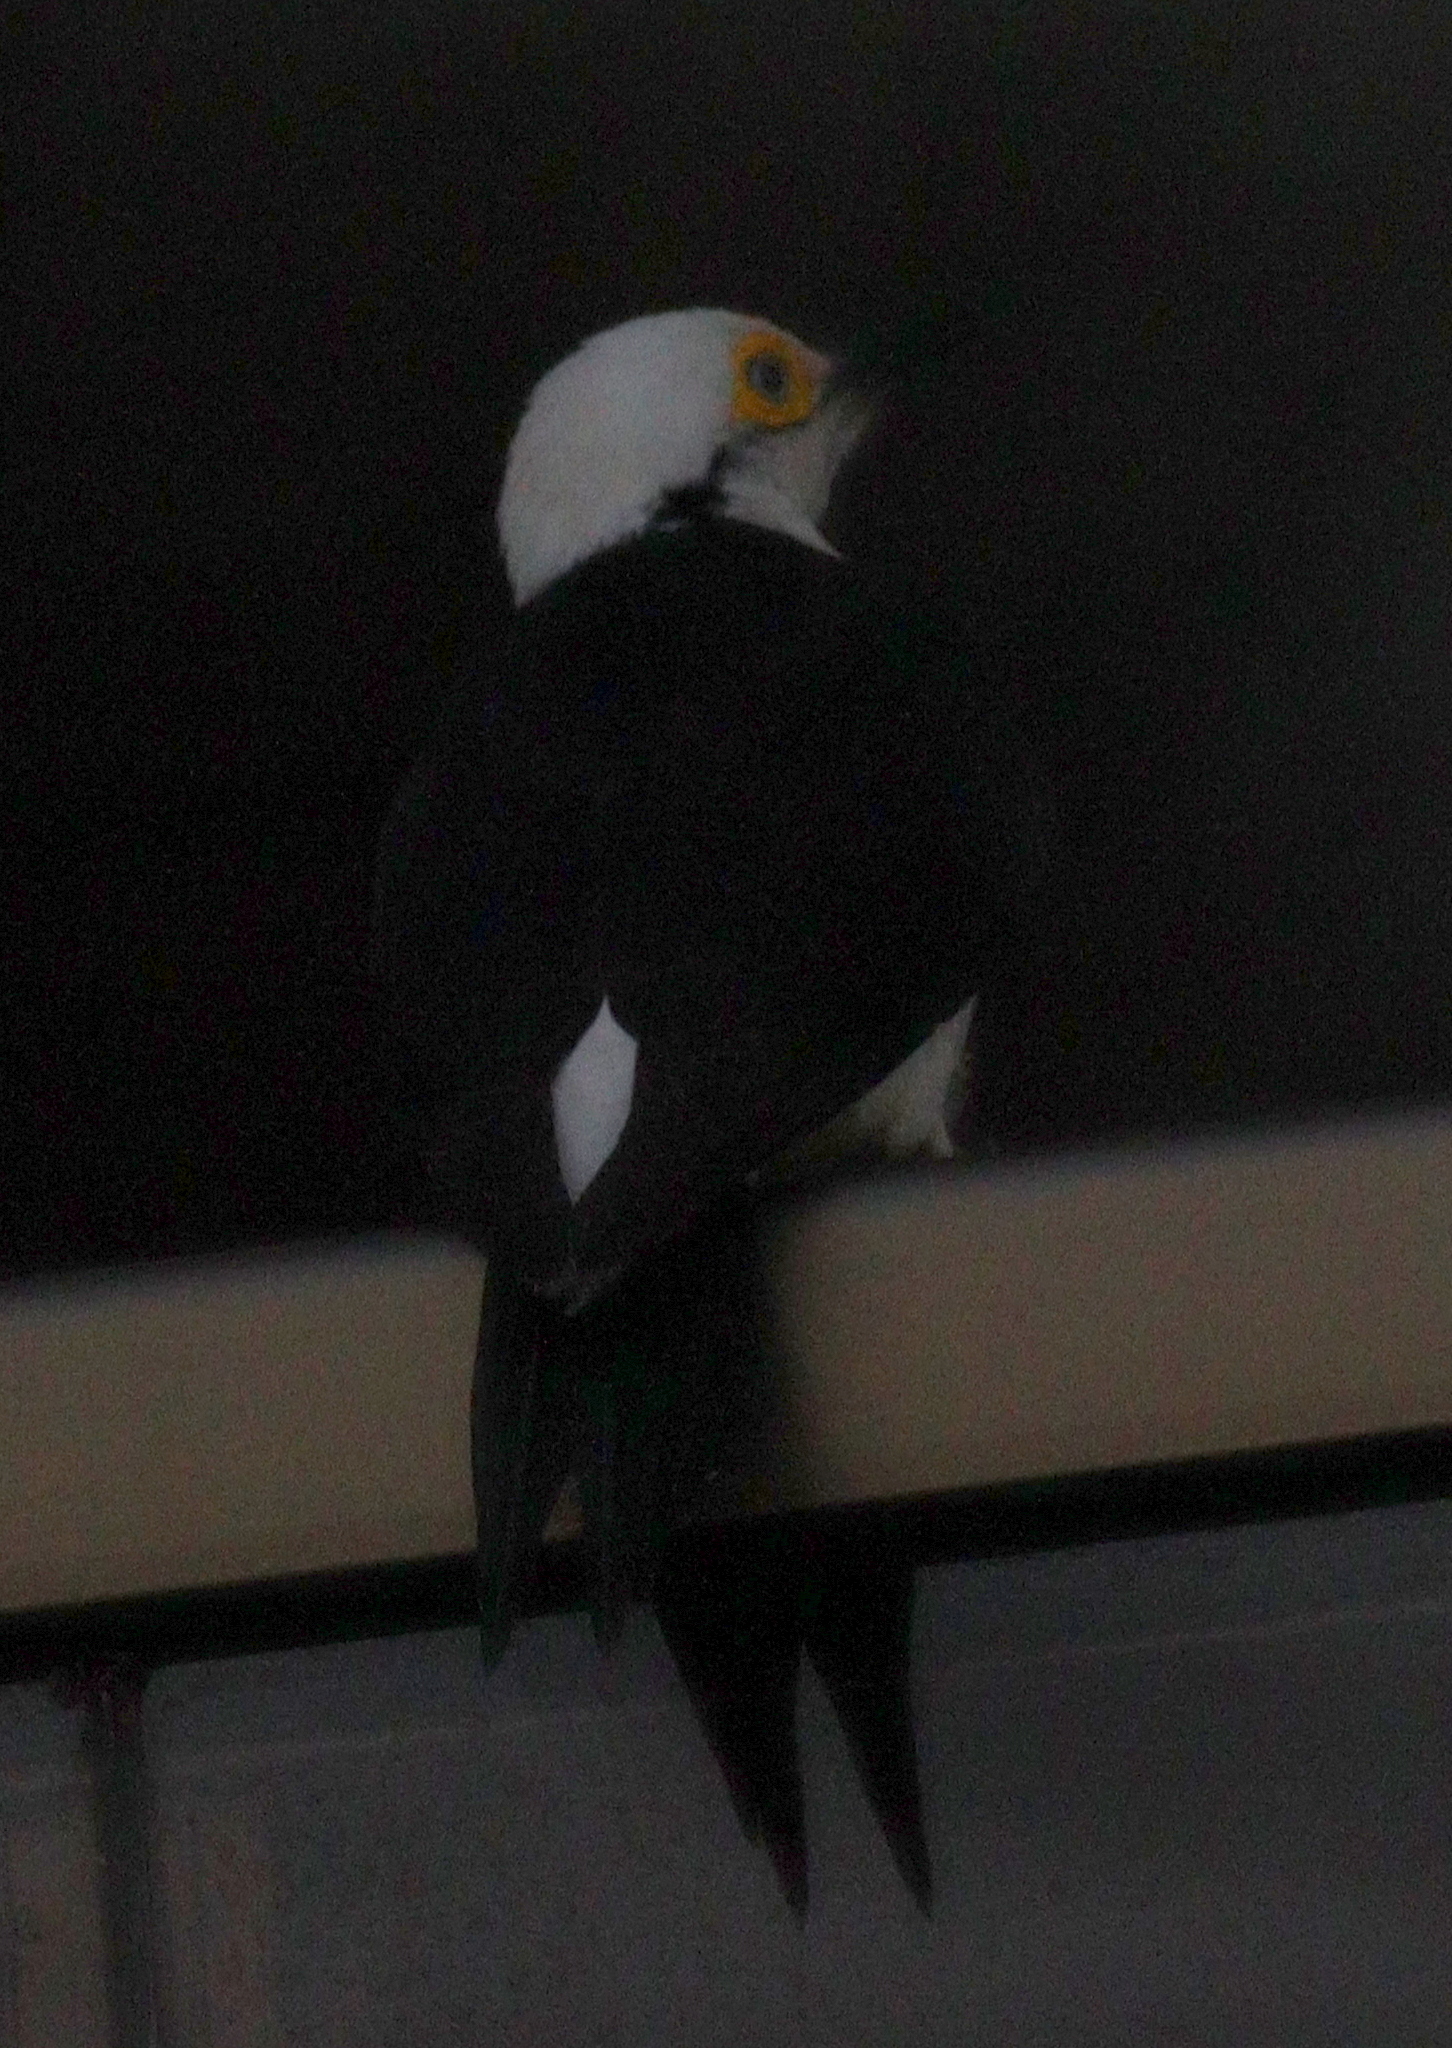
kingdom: Animalia
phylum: Chordata
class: Aves
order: Piciformes
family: Picidae
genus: Melanerpes
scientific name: Melanerpes candidus
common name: White woodpecker
